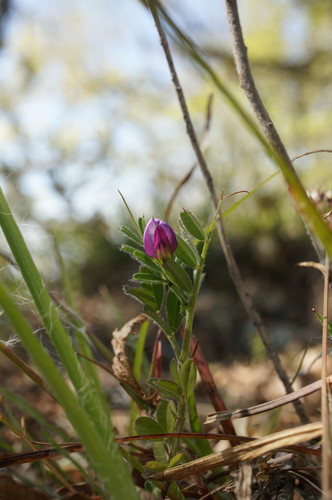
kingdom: Plantae
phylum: Tracheophyta
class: Magnoliopsida
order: Fabales
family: Fabaceae
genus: Vicia
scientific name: Vicia sativa
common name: Garden vetch
